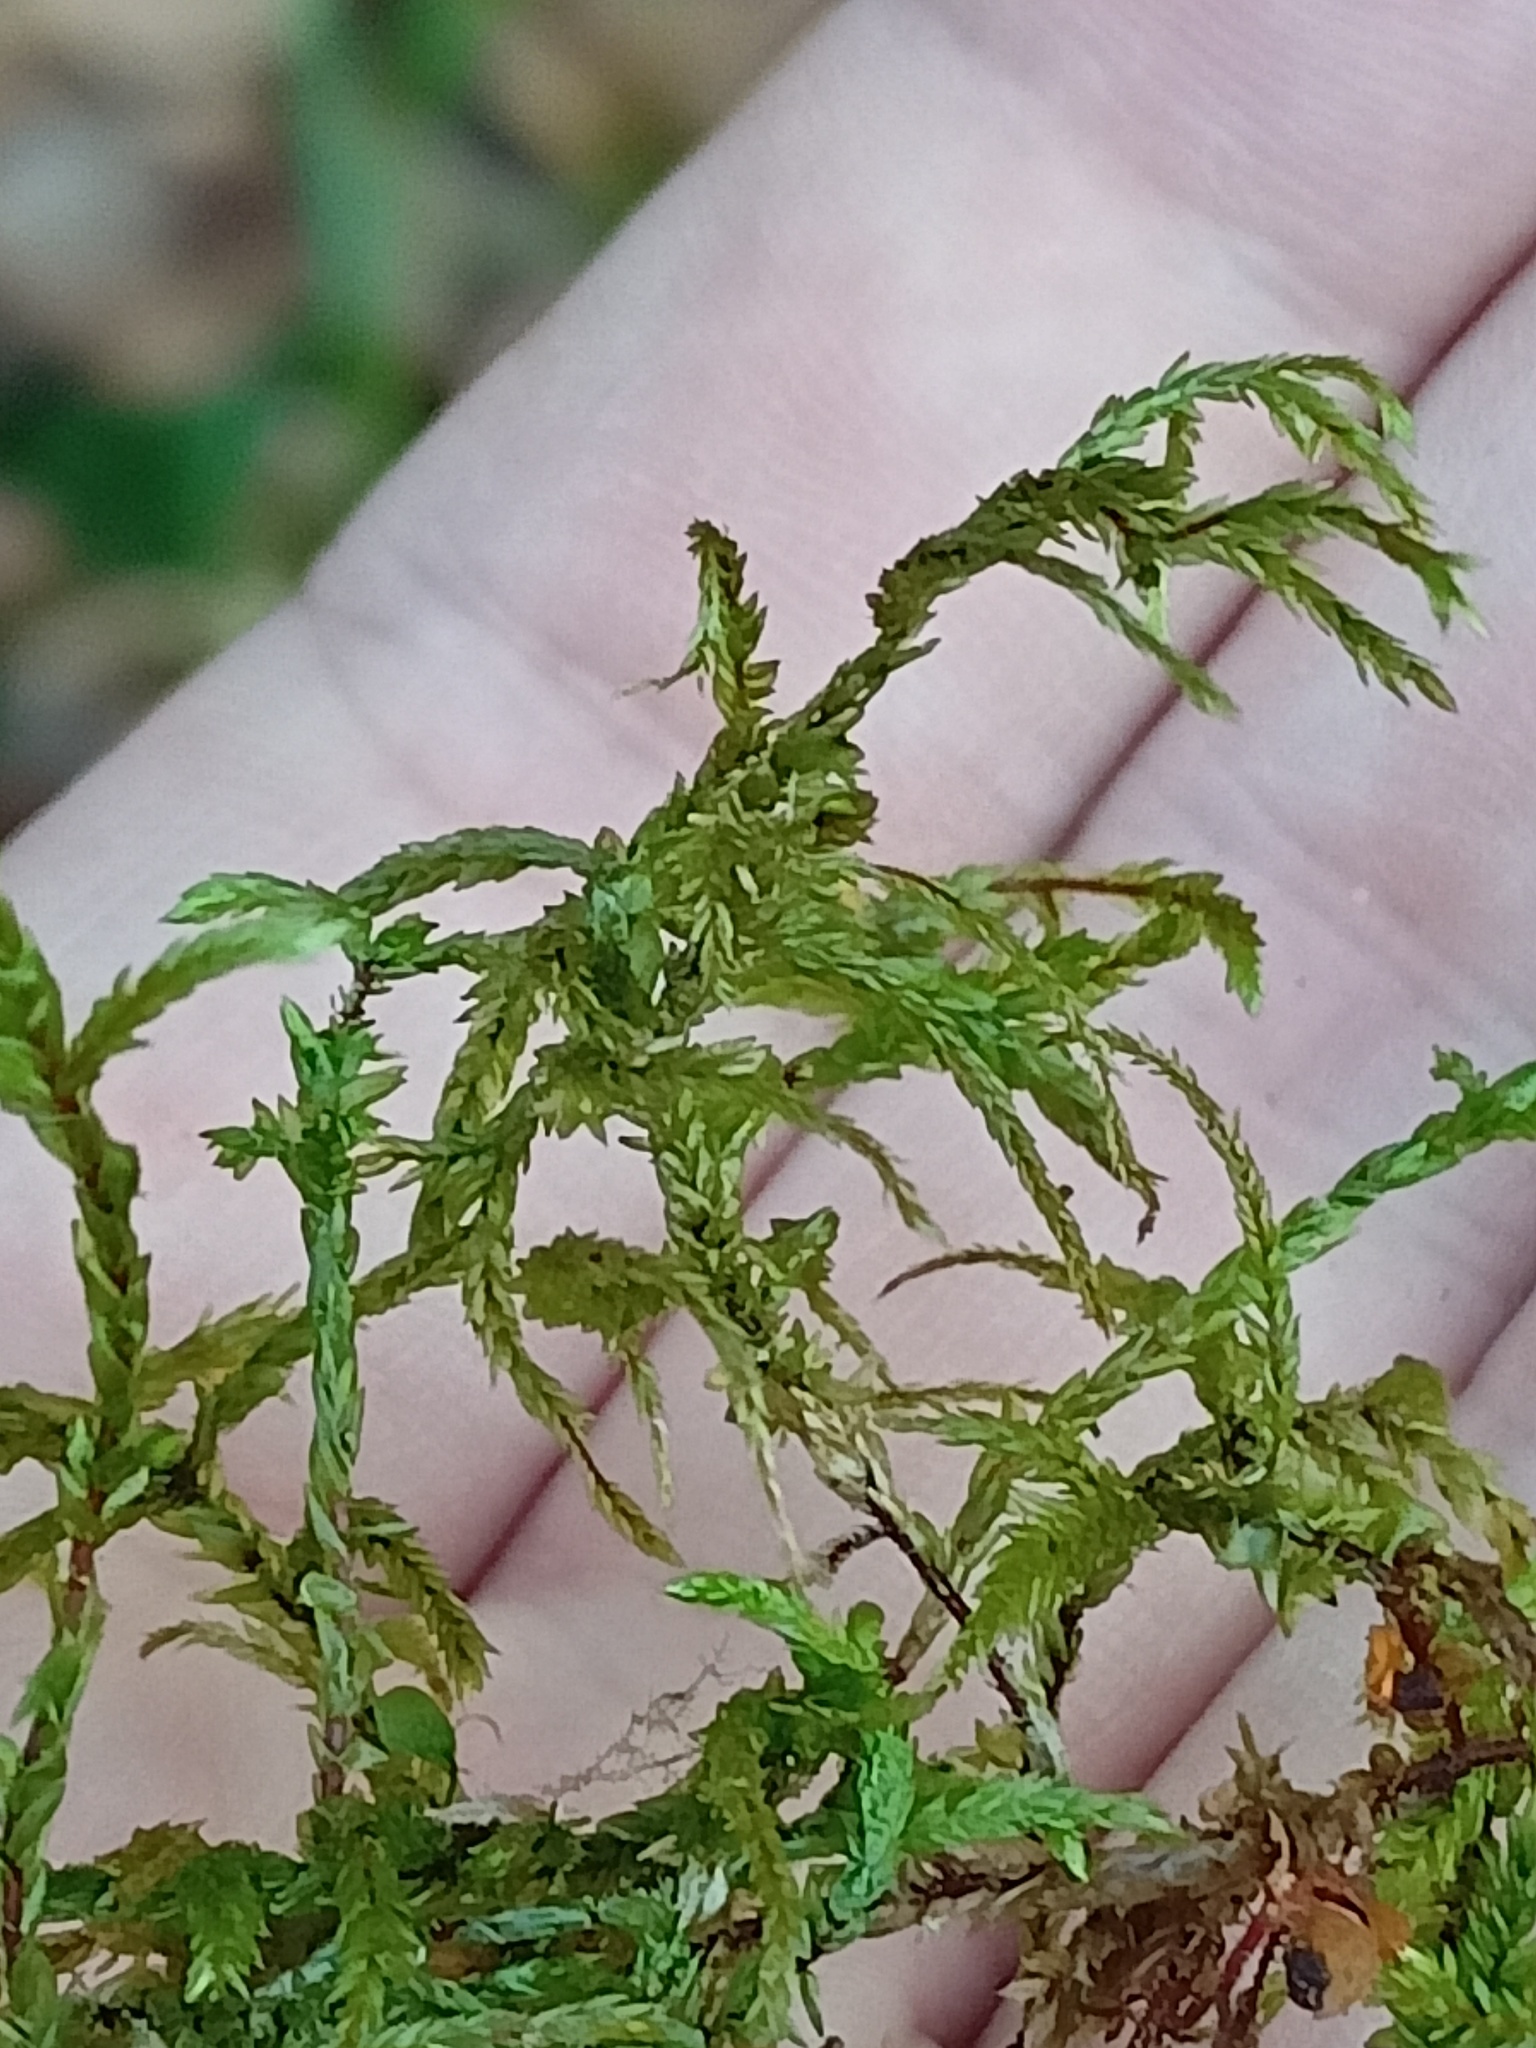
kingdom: Plantae
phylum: Bryophyta
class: Bryopsida
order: Hypnales
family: Hylocomiaceae
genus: Pleurozium
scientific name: Pleurozium schreberi
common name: Red-stemmed feather moss
